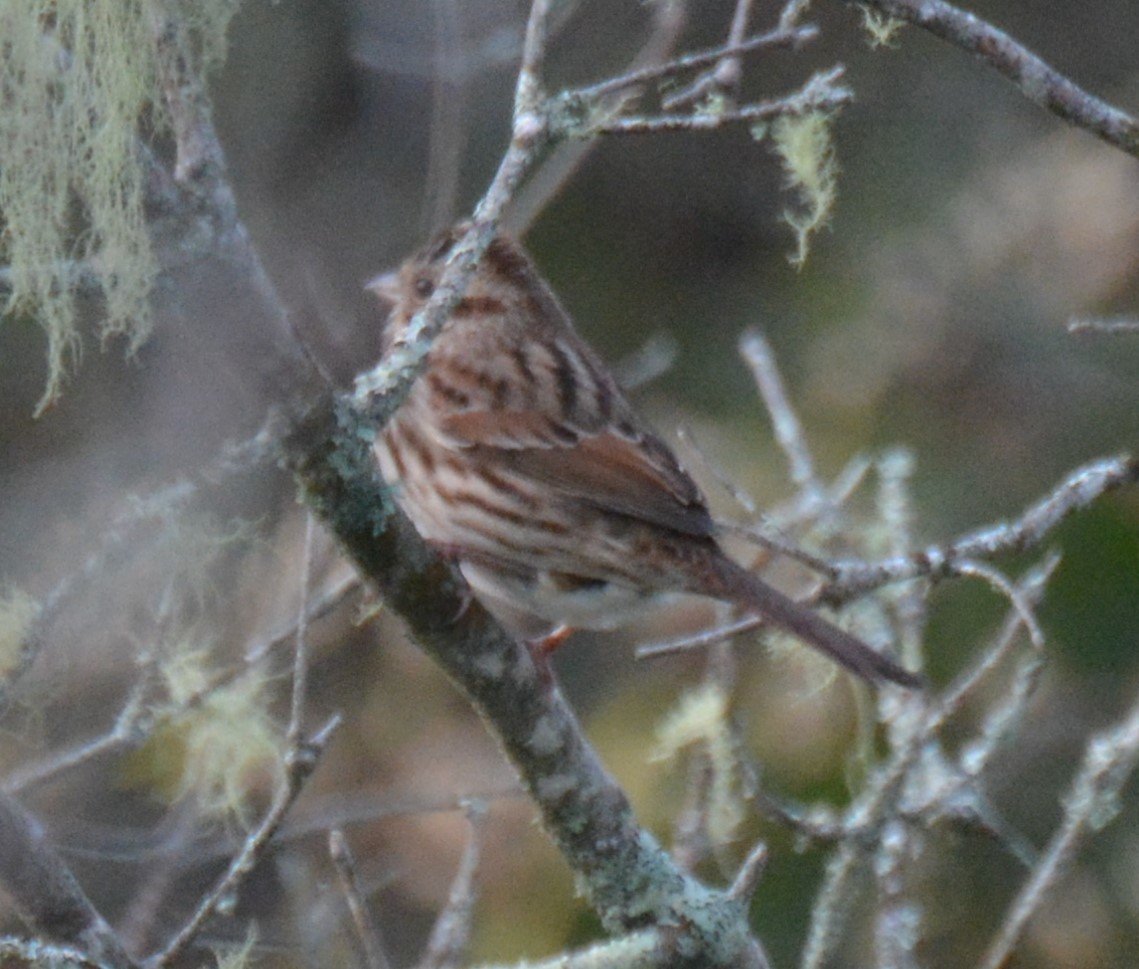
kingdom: Animalia
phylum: Chordata
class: Aves
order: Passeriformes
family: Passerellidae
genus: Melospiza
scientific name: Melospiza melodia
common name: Song sparrow
